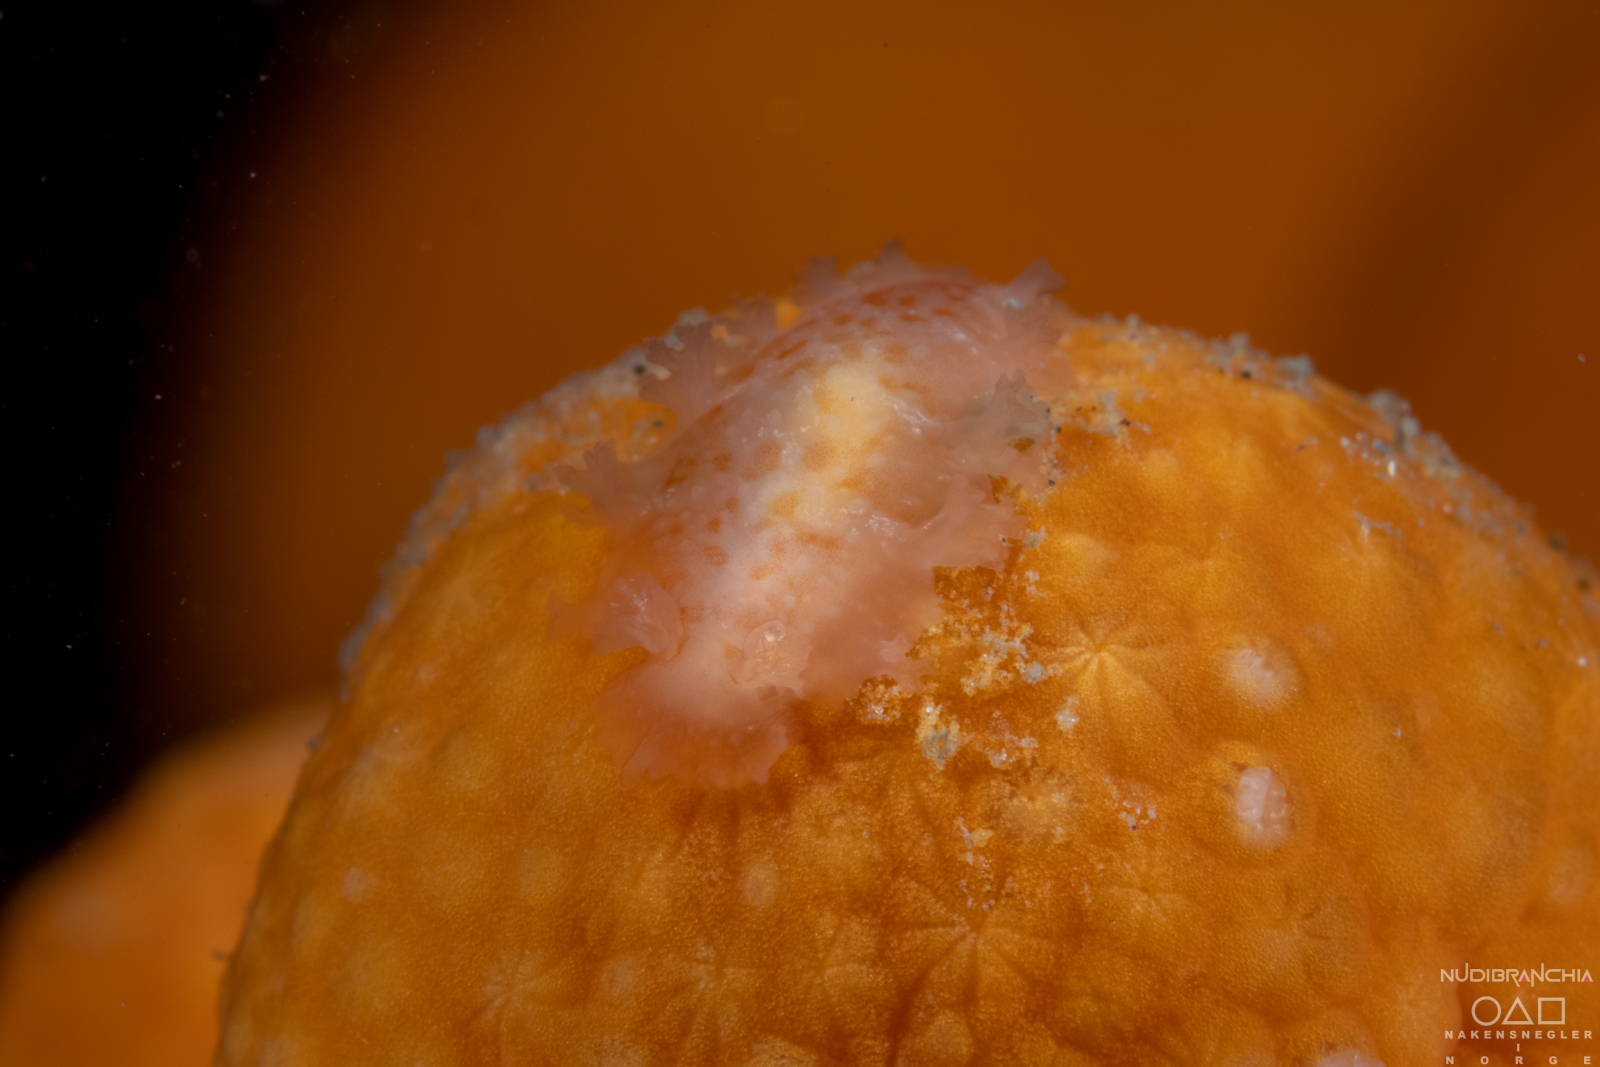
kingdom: Animalia
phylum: Mollusca
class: Gastropoda
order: Nudibranchia
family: Tritoniidae
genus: Tritonia
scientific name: Tritonia hombergii
